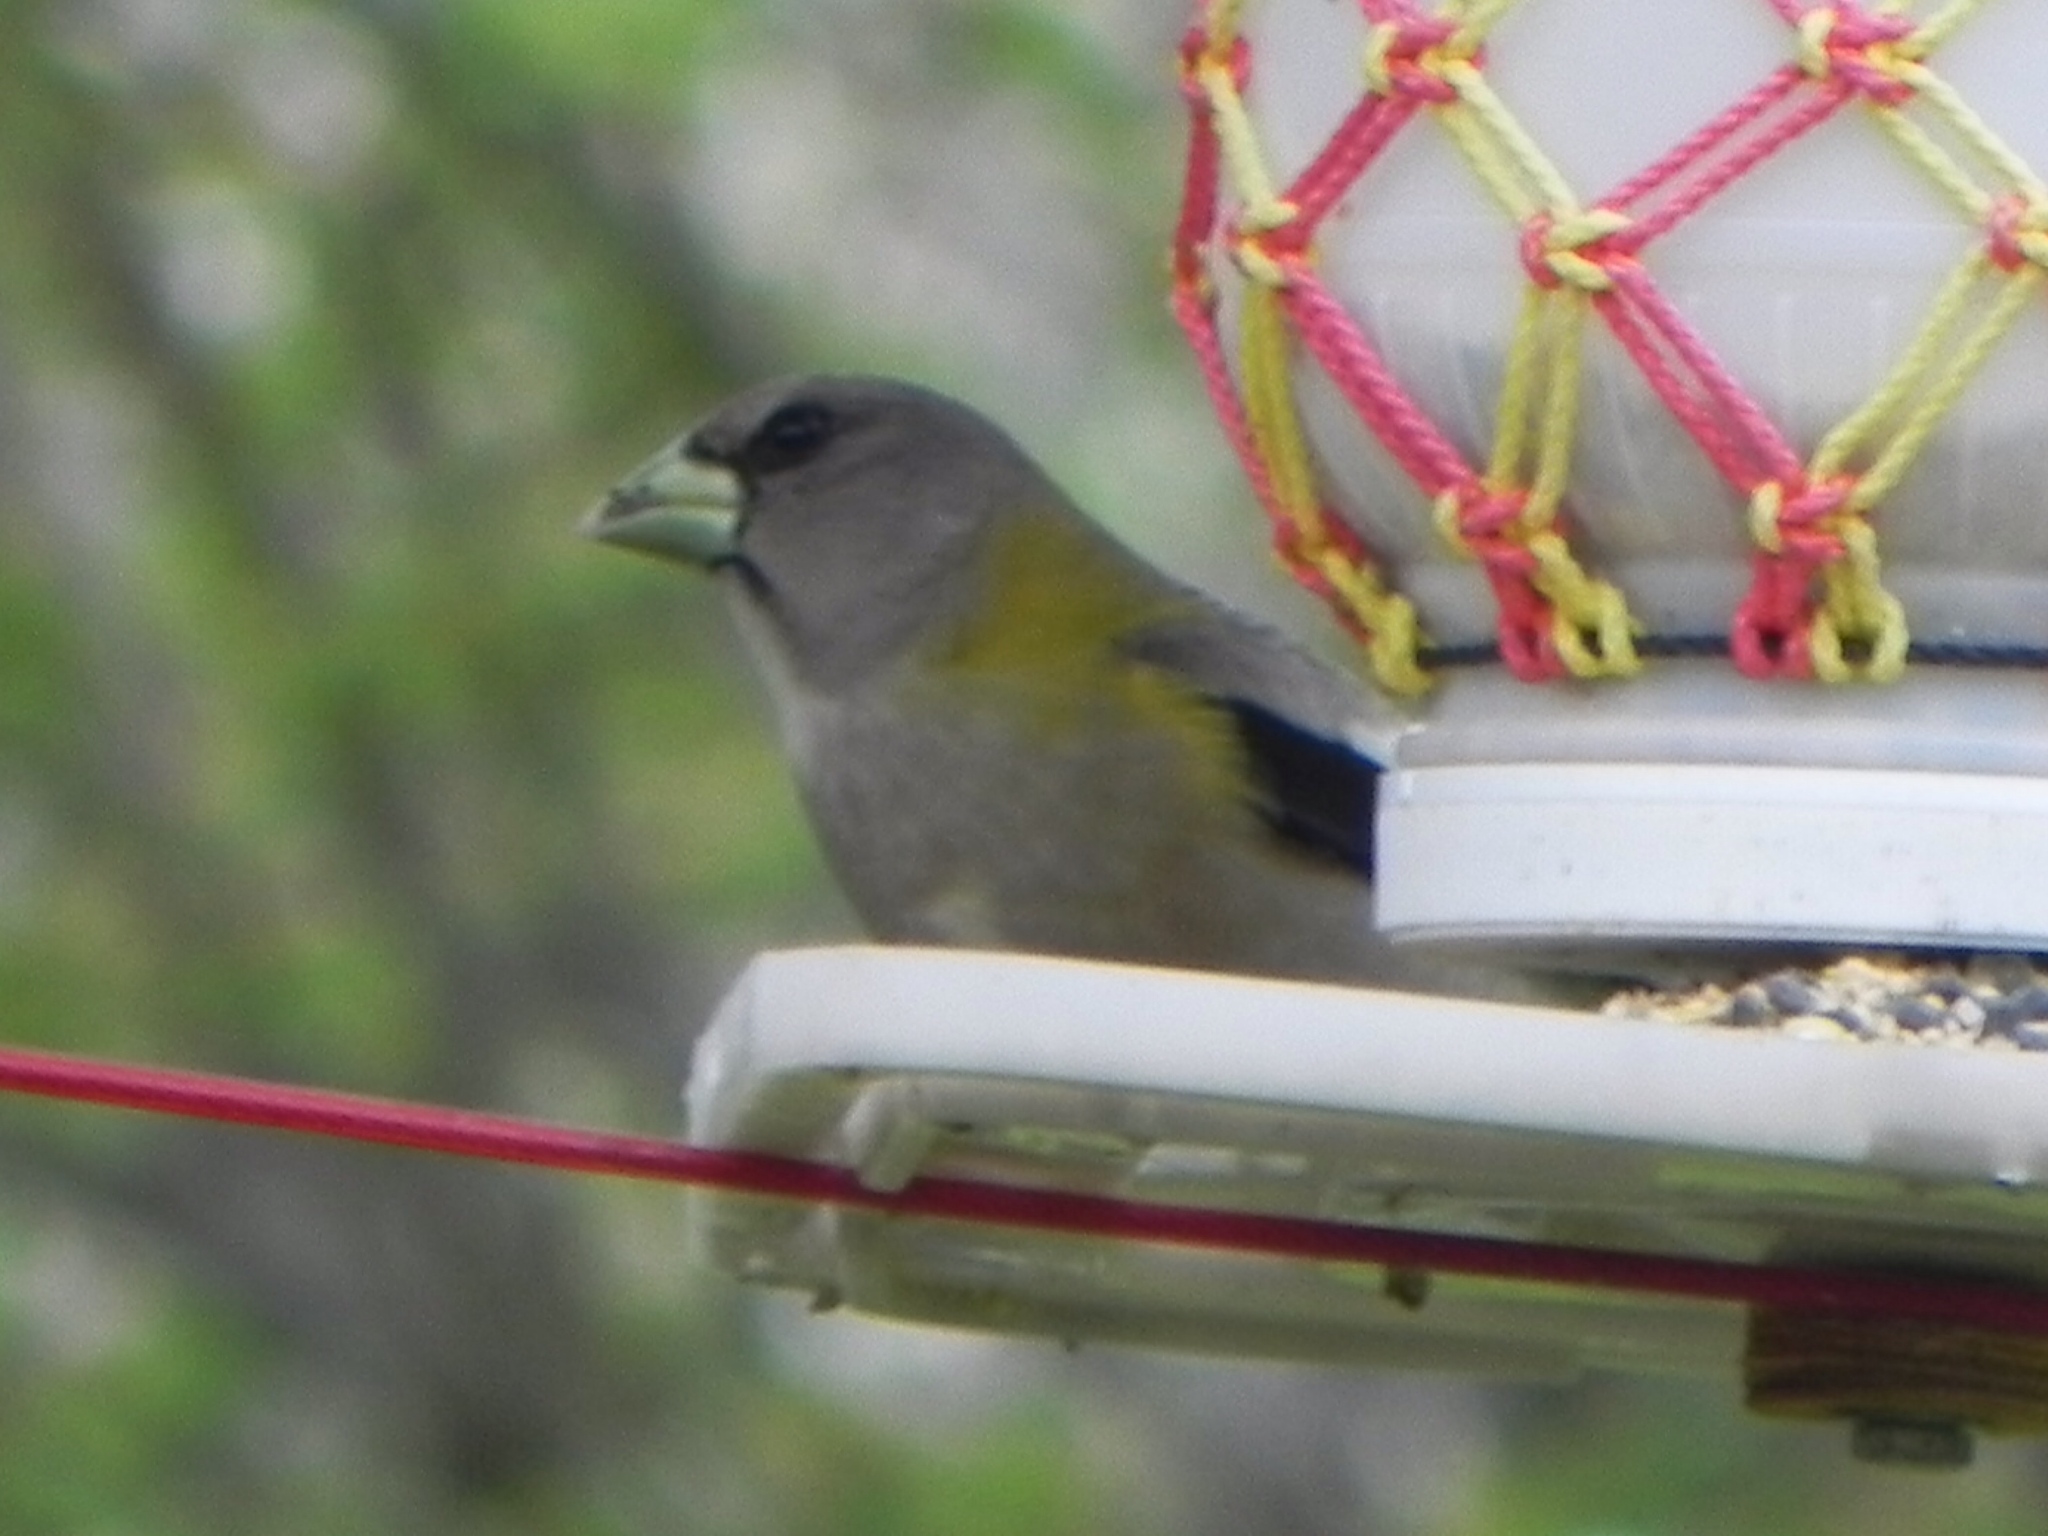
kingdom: Animalia
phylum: Chordata
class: Aves
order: Passeriformes
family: Fringillidae
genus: Hesperiphona
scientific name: Hesperiphona vespertina
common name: Evening grosbeak
